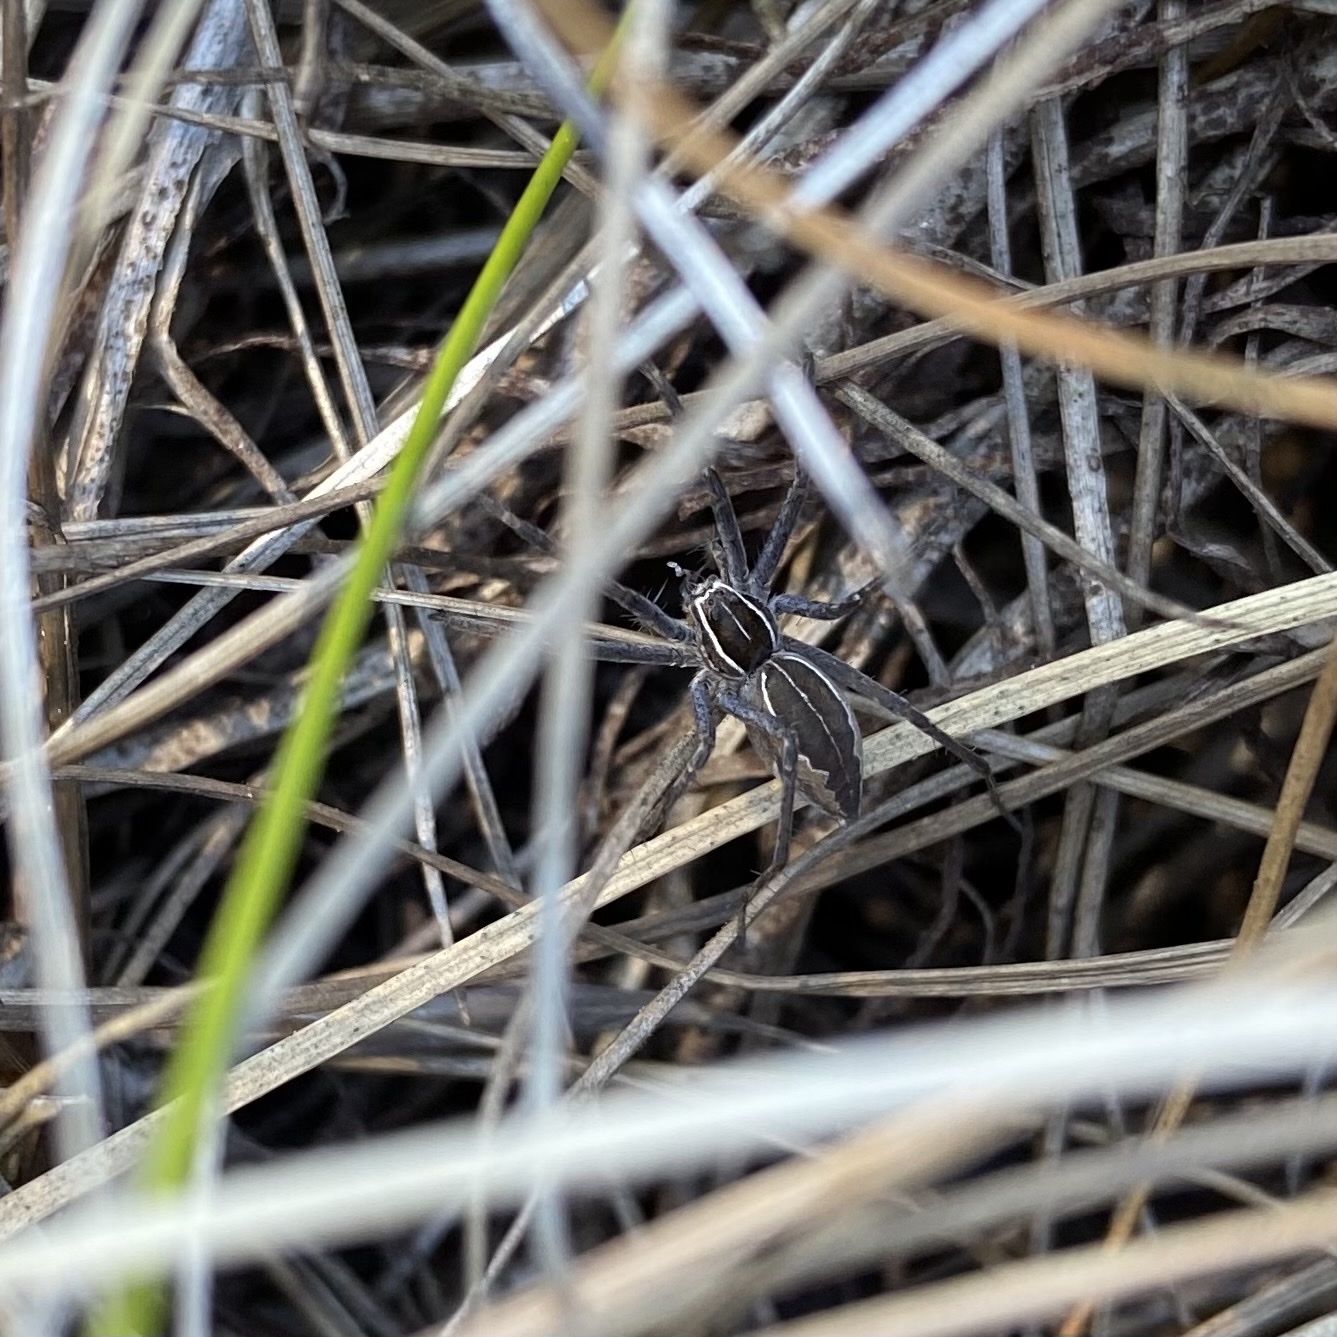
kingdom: Animalia
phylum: Arthropoda
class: Arachnida
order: Araneae
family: Pisauridae
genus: Euprosthenopsis
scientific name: Euprosthenopsis pulchella
